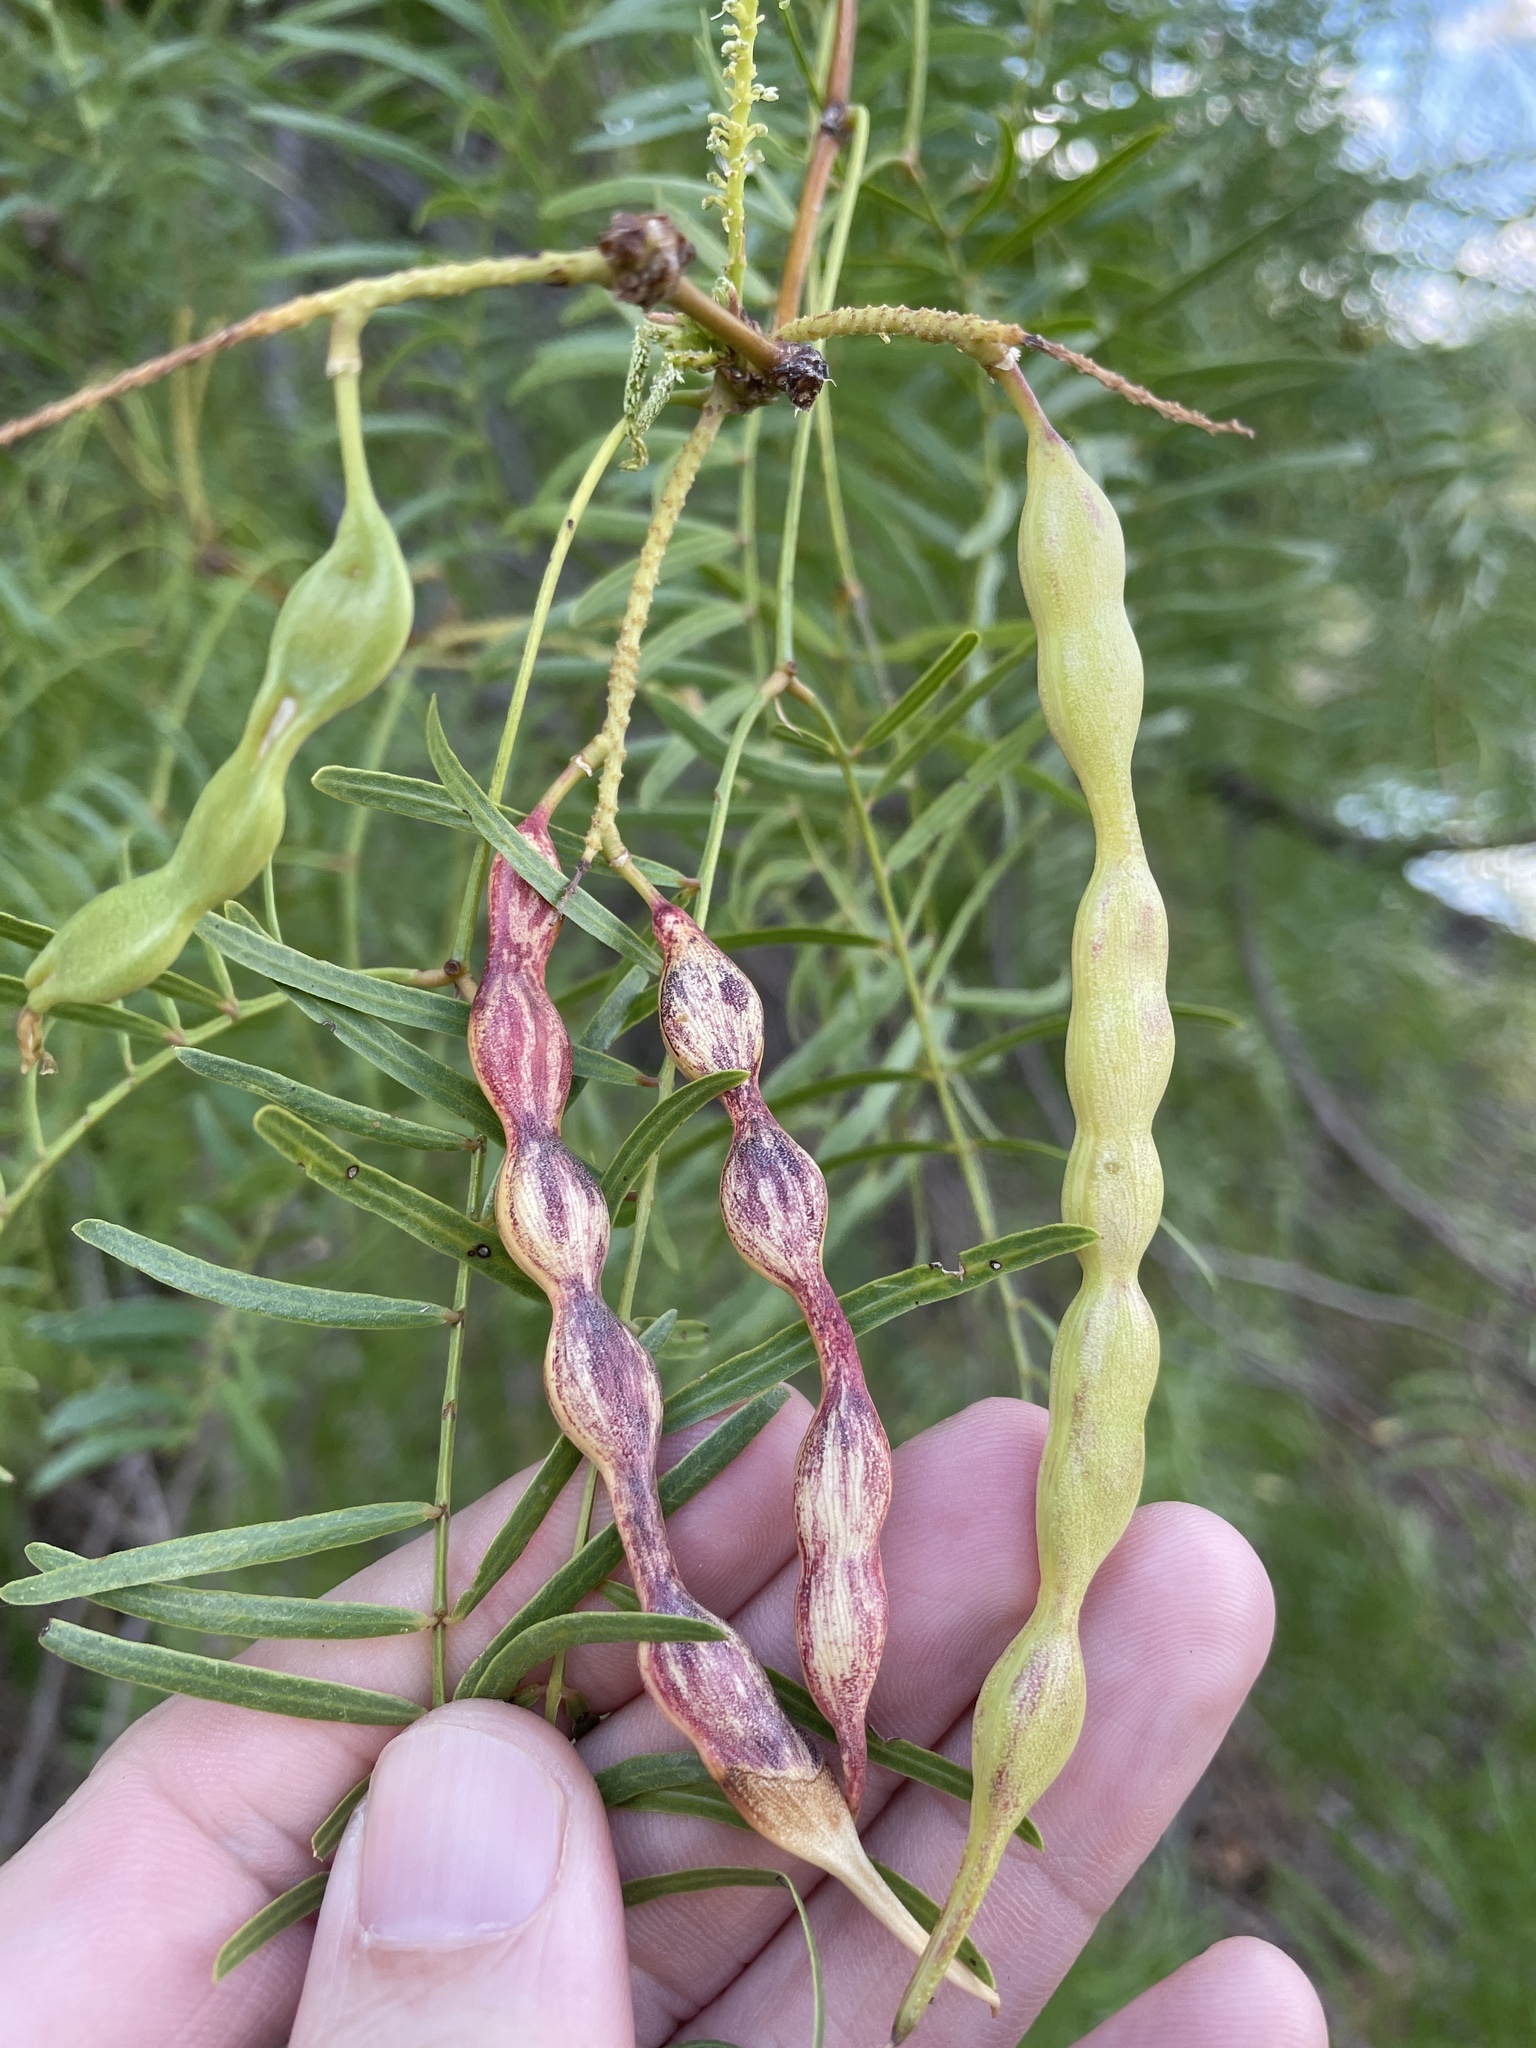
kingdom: Plantae
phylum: Tracheophyta
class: Magnoliopsida
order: Fabales
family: Fabaceae
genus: Prosopis
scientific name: Prosopis glandulosa
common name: Honey mesquite
